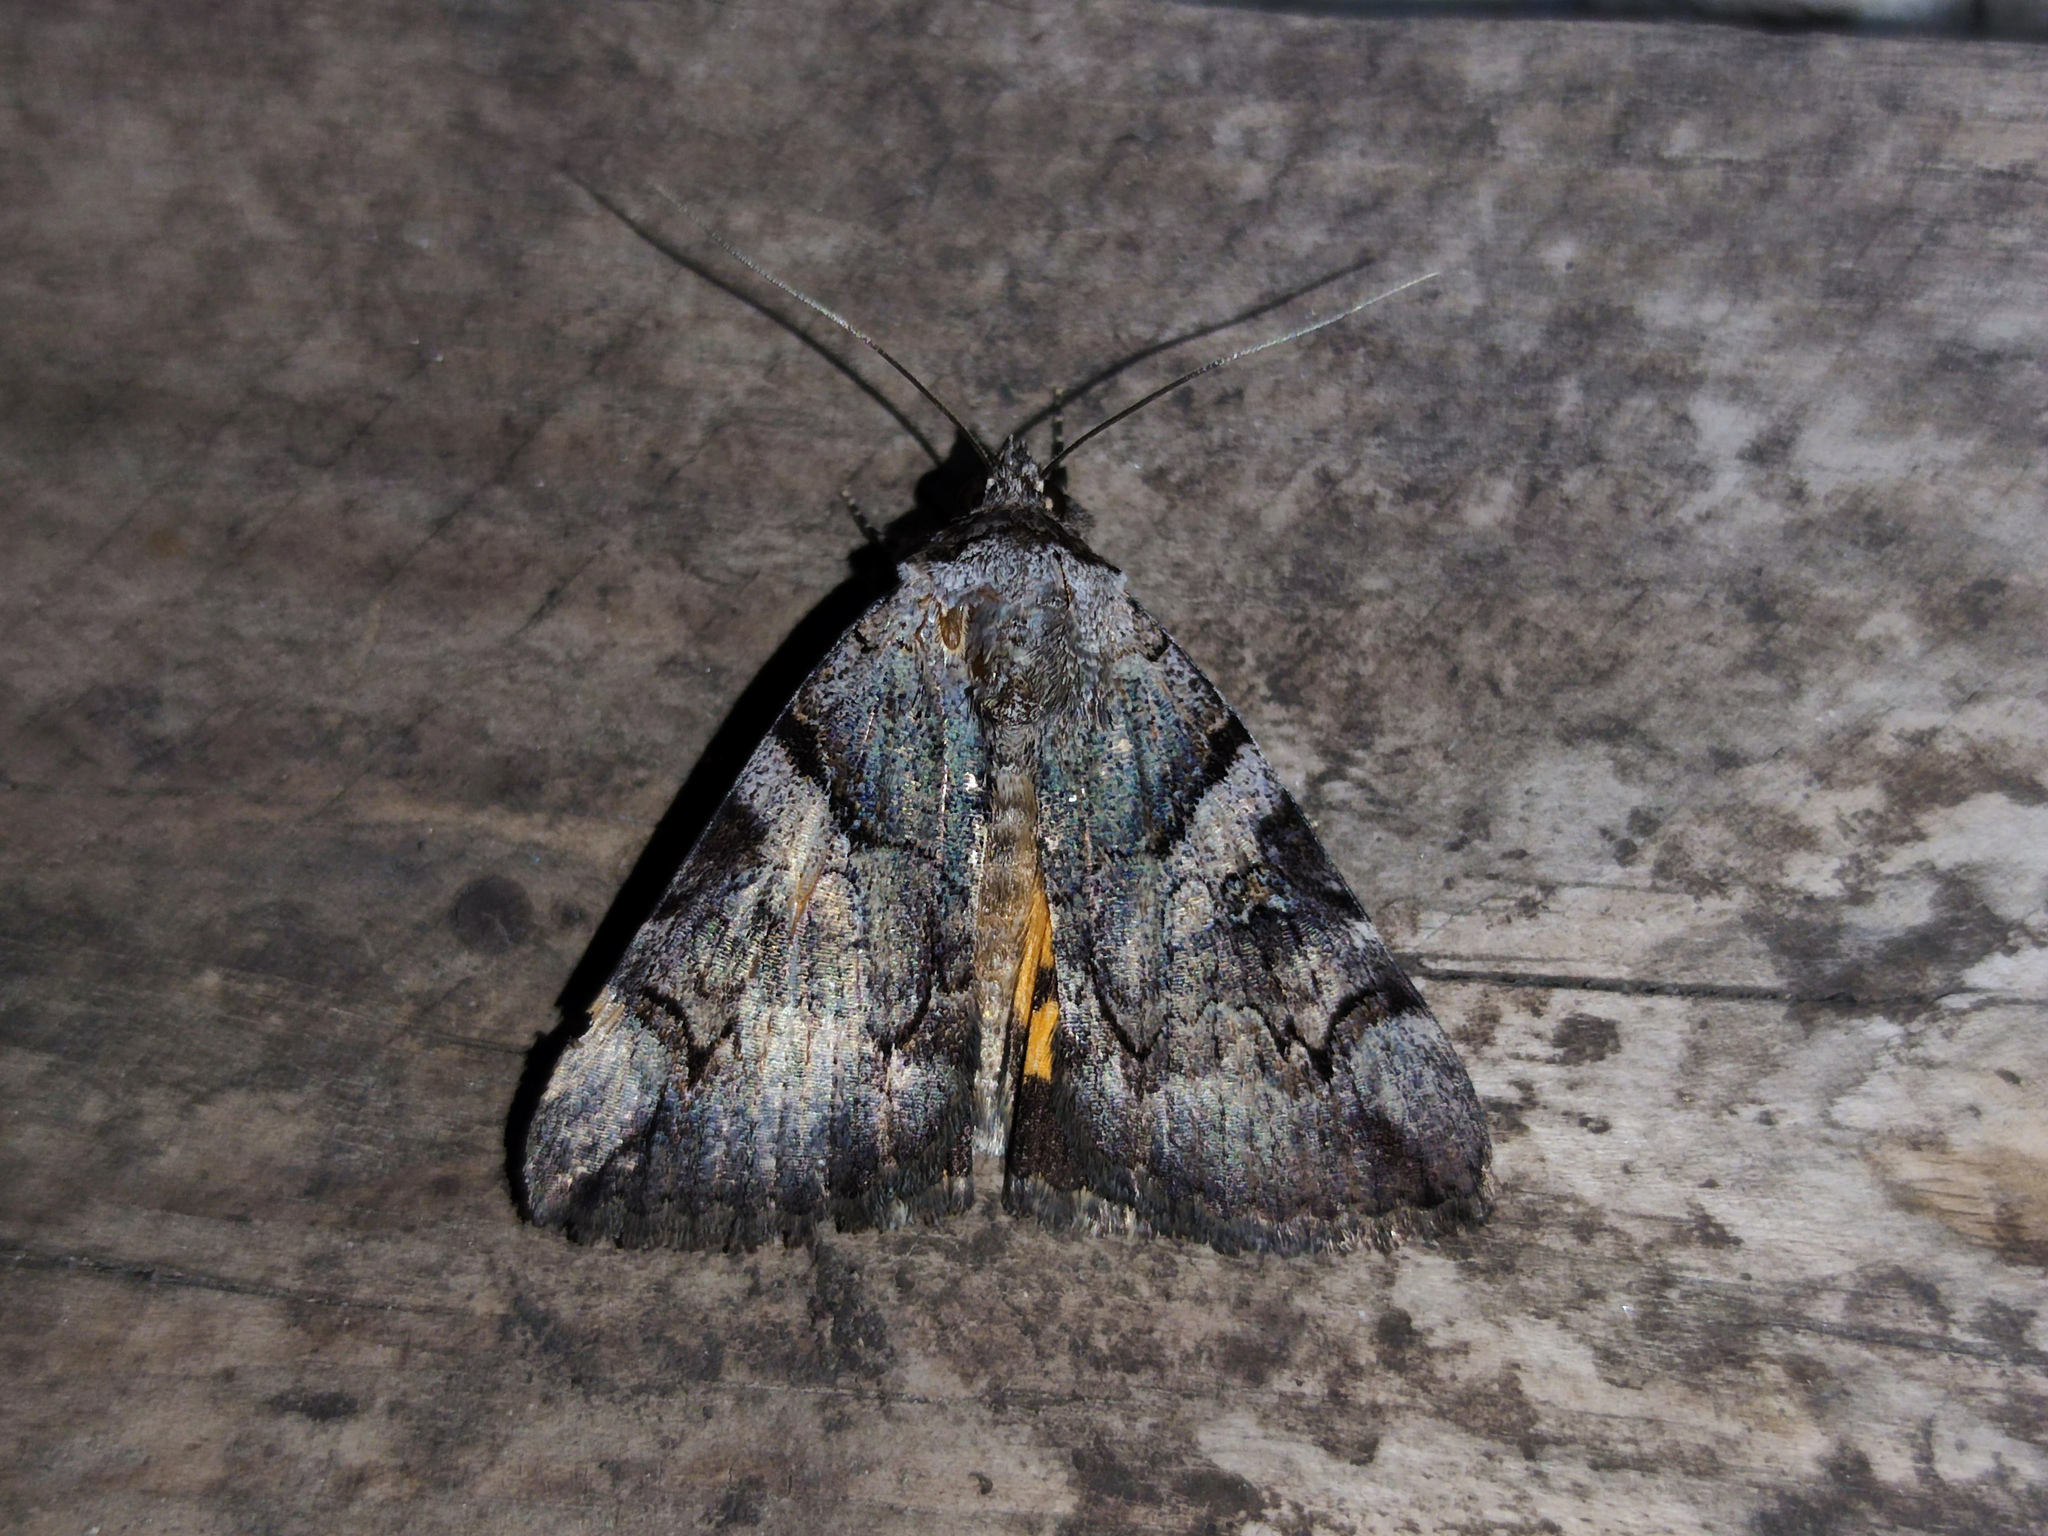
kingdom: Animalia
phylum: Arthropoda
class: Insecta
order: Lepidoptera
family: Erebidae
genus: Catocala
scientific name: Catocala hymenaea
